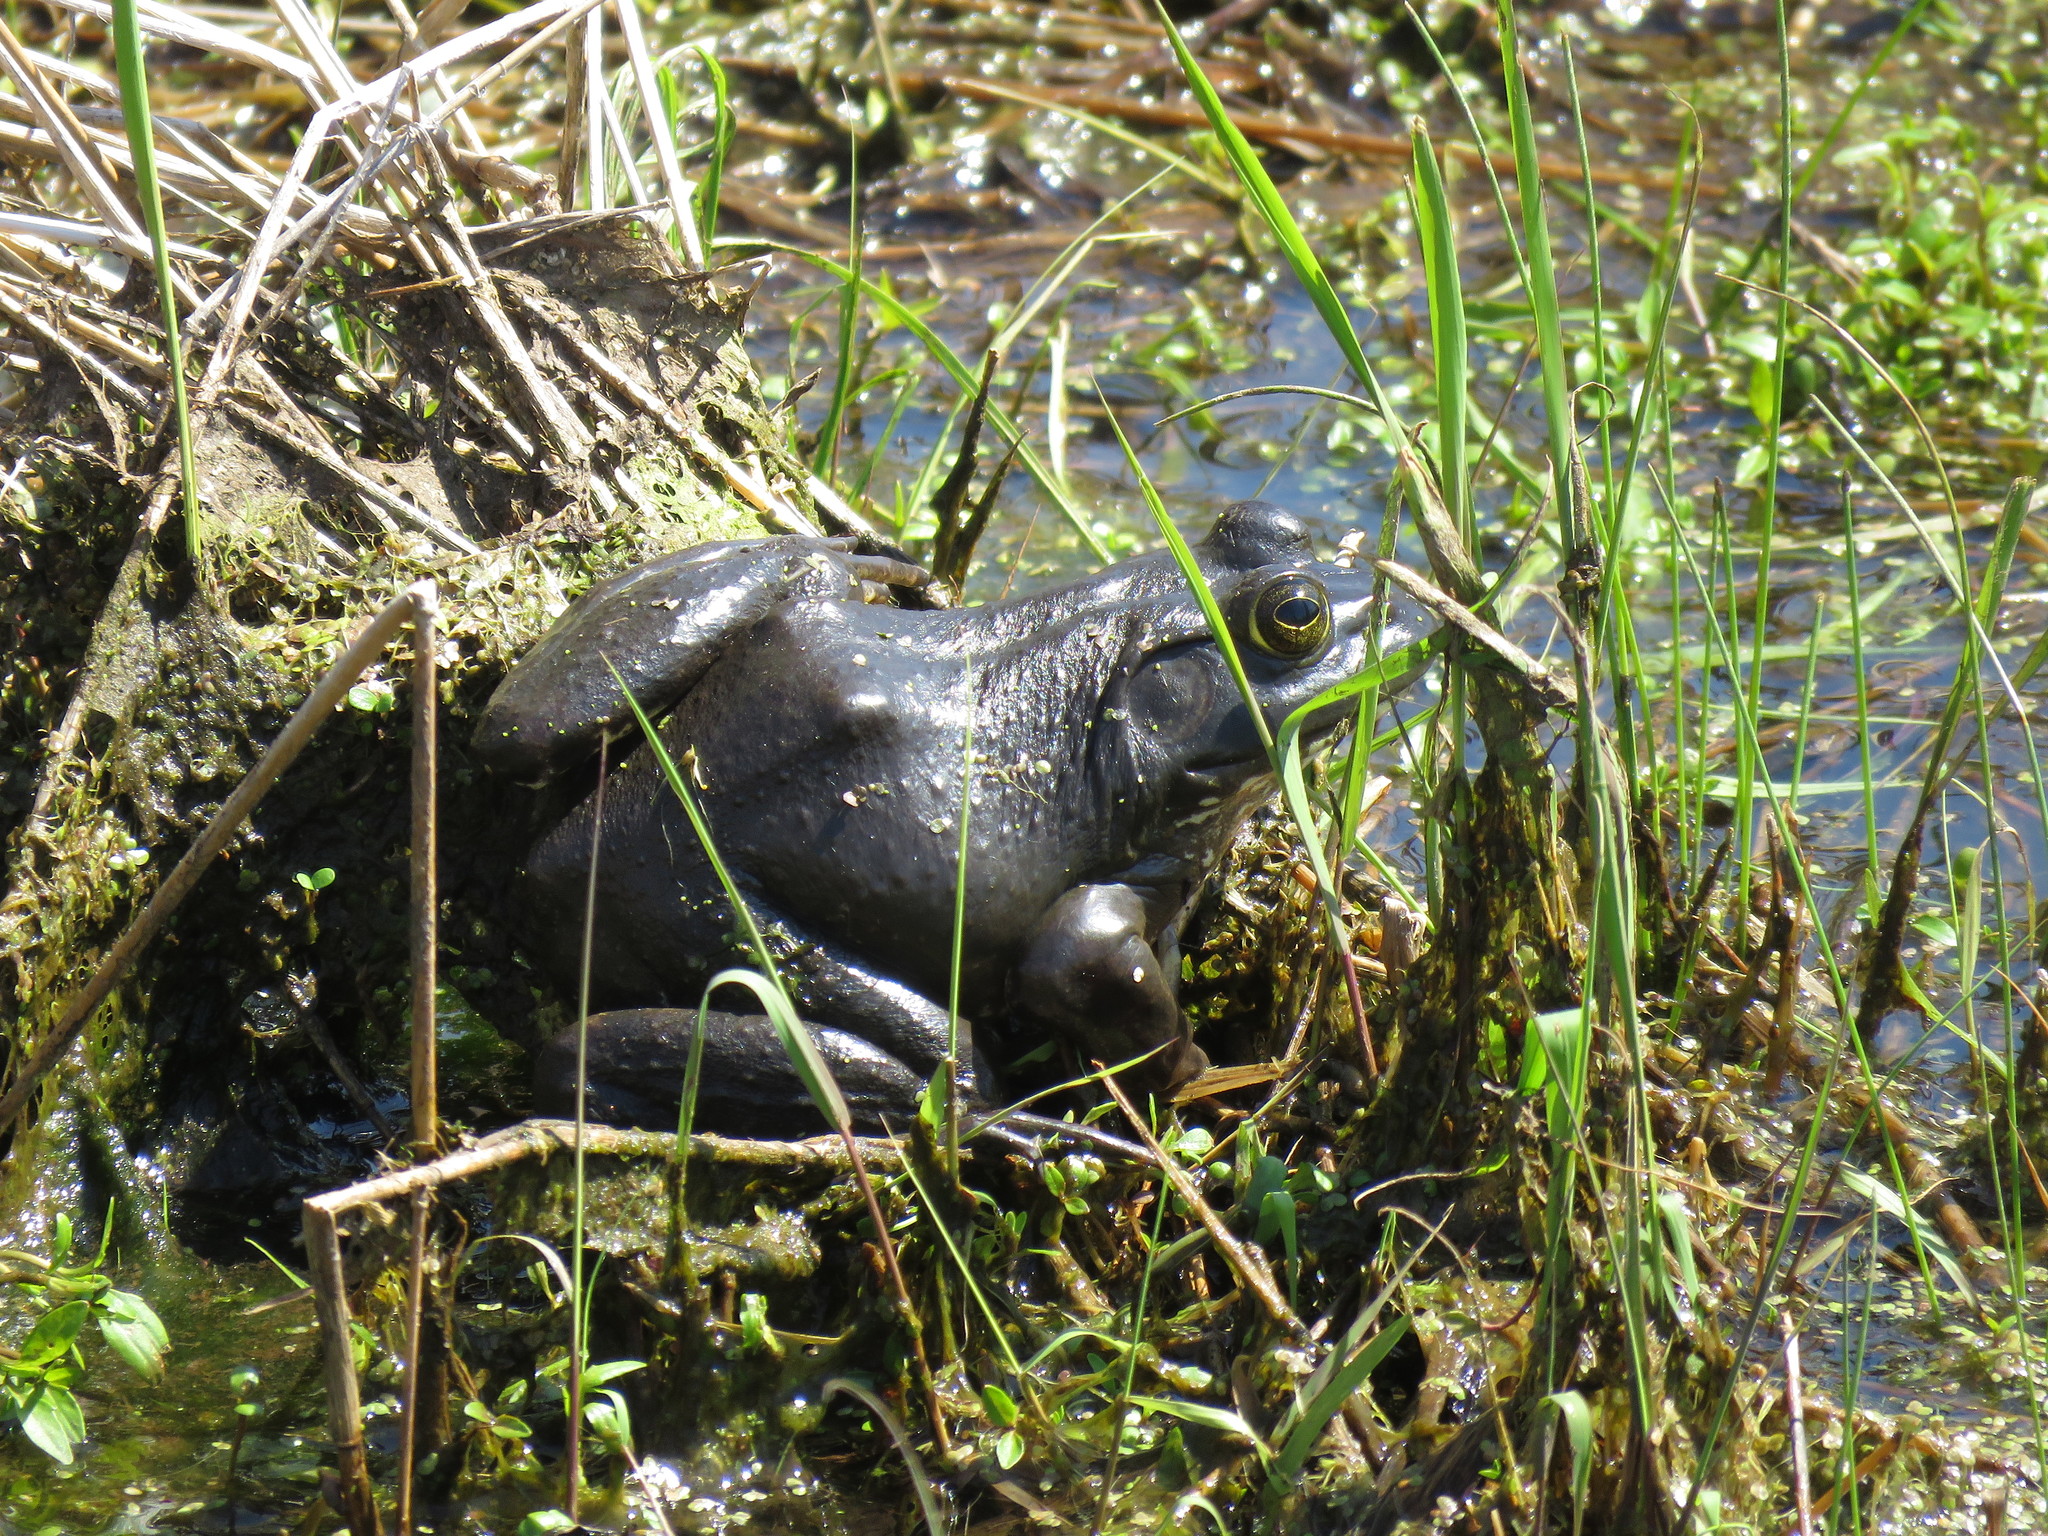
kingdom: Animalia
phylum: Chordata
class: Amphibia
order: Anura
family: Ranidae
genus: Lithobates
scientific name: Lithobates catesbeianus
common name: American bullfrog
